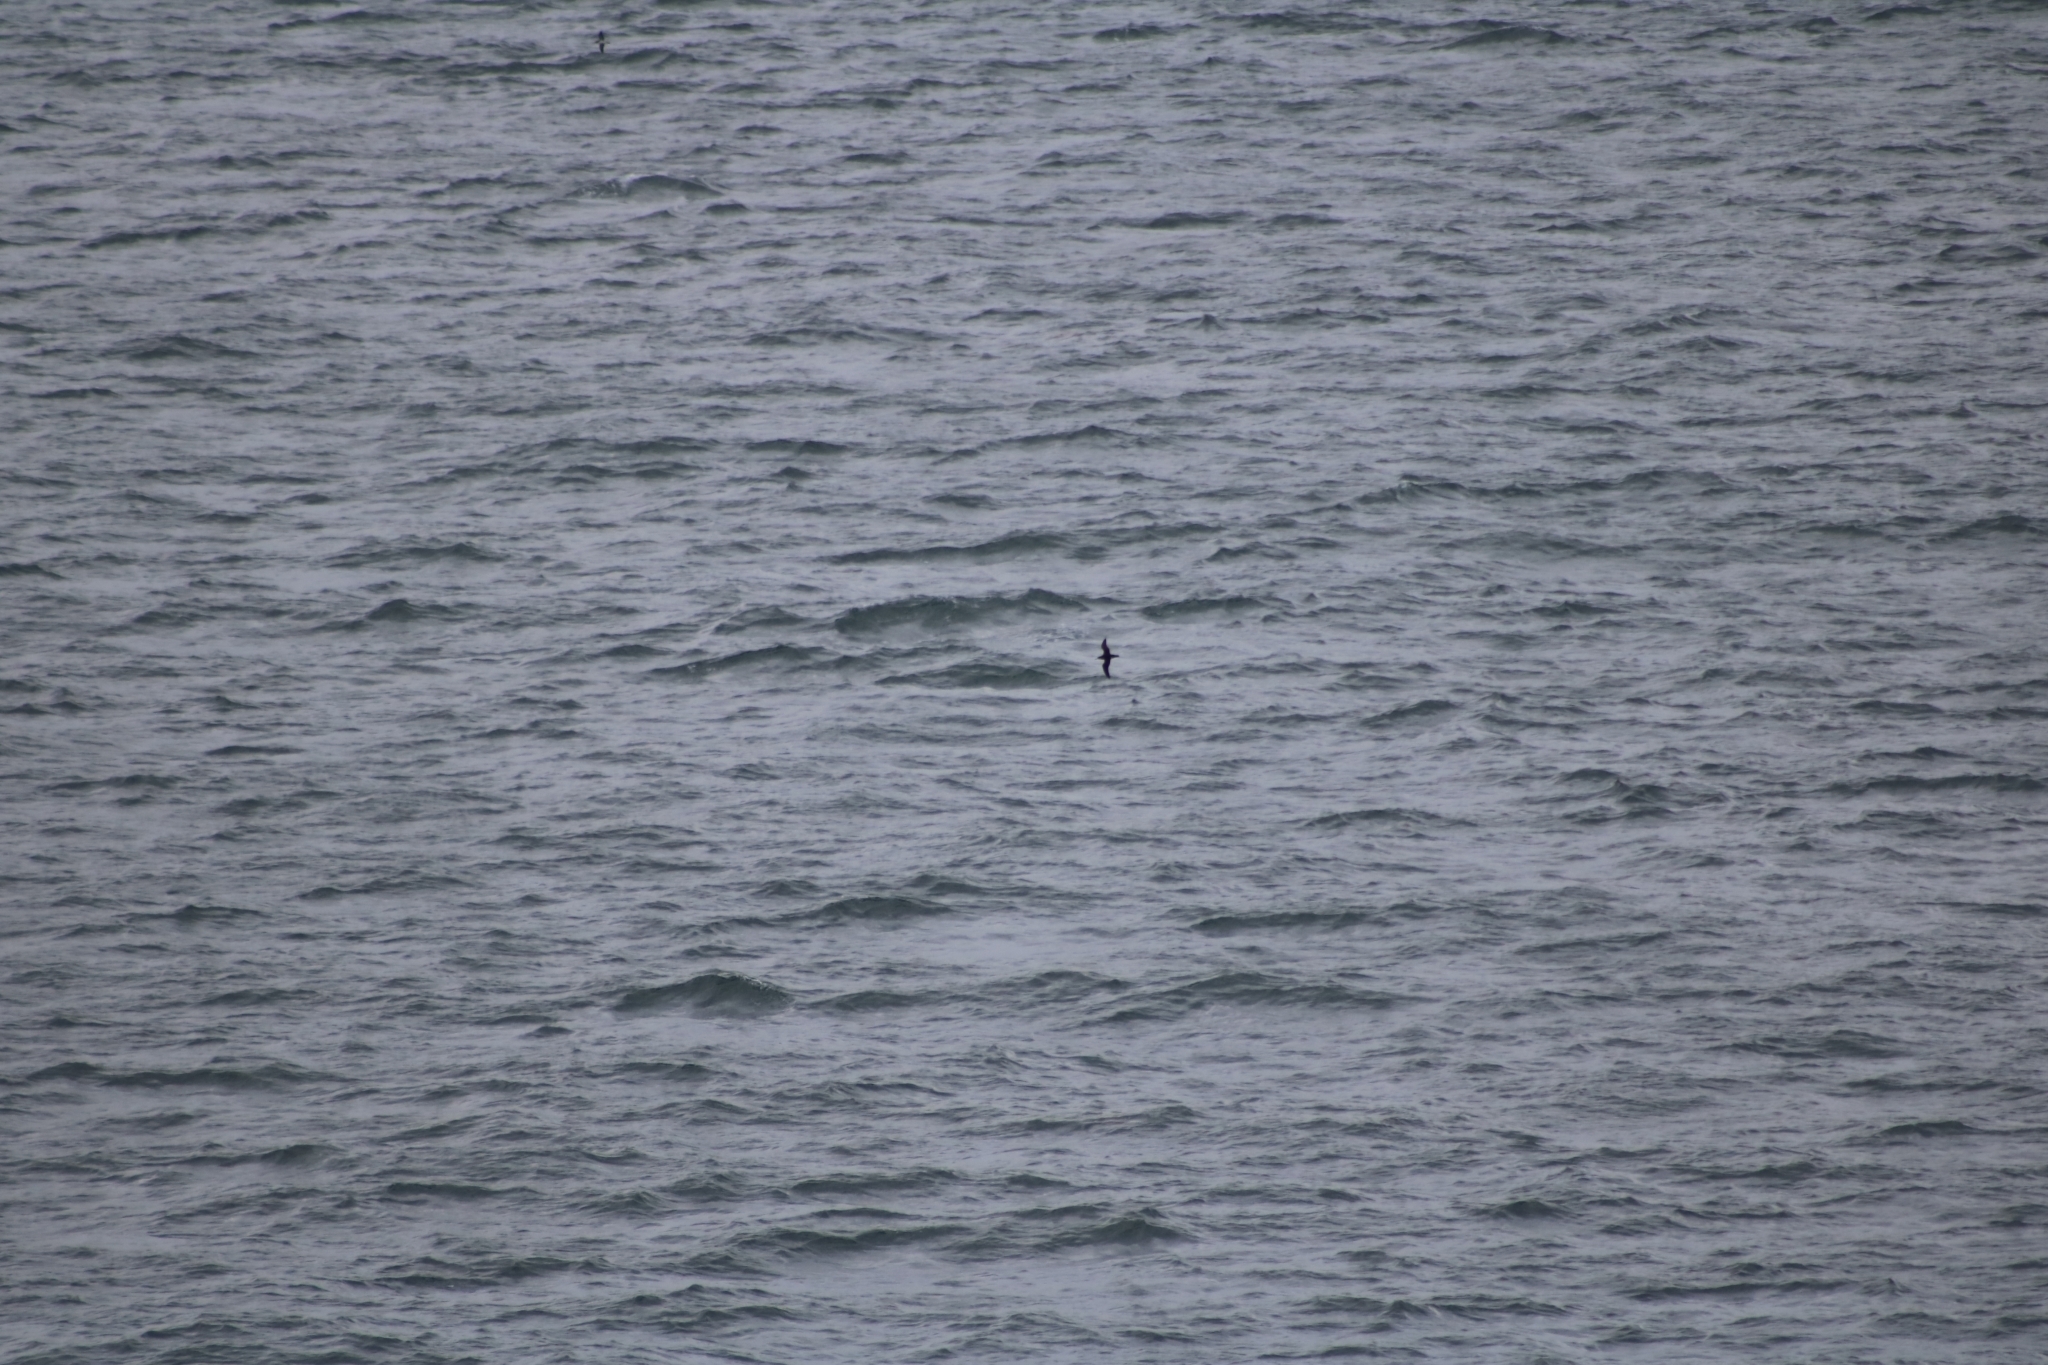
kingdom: Animalia
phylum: Chordata
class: Aves
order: Procellariiformes
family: Procellariidae
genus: Puffinus
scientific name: Puffinus puffinus
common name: Manx shearwater
